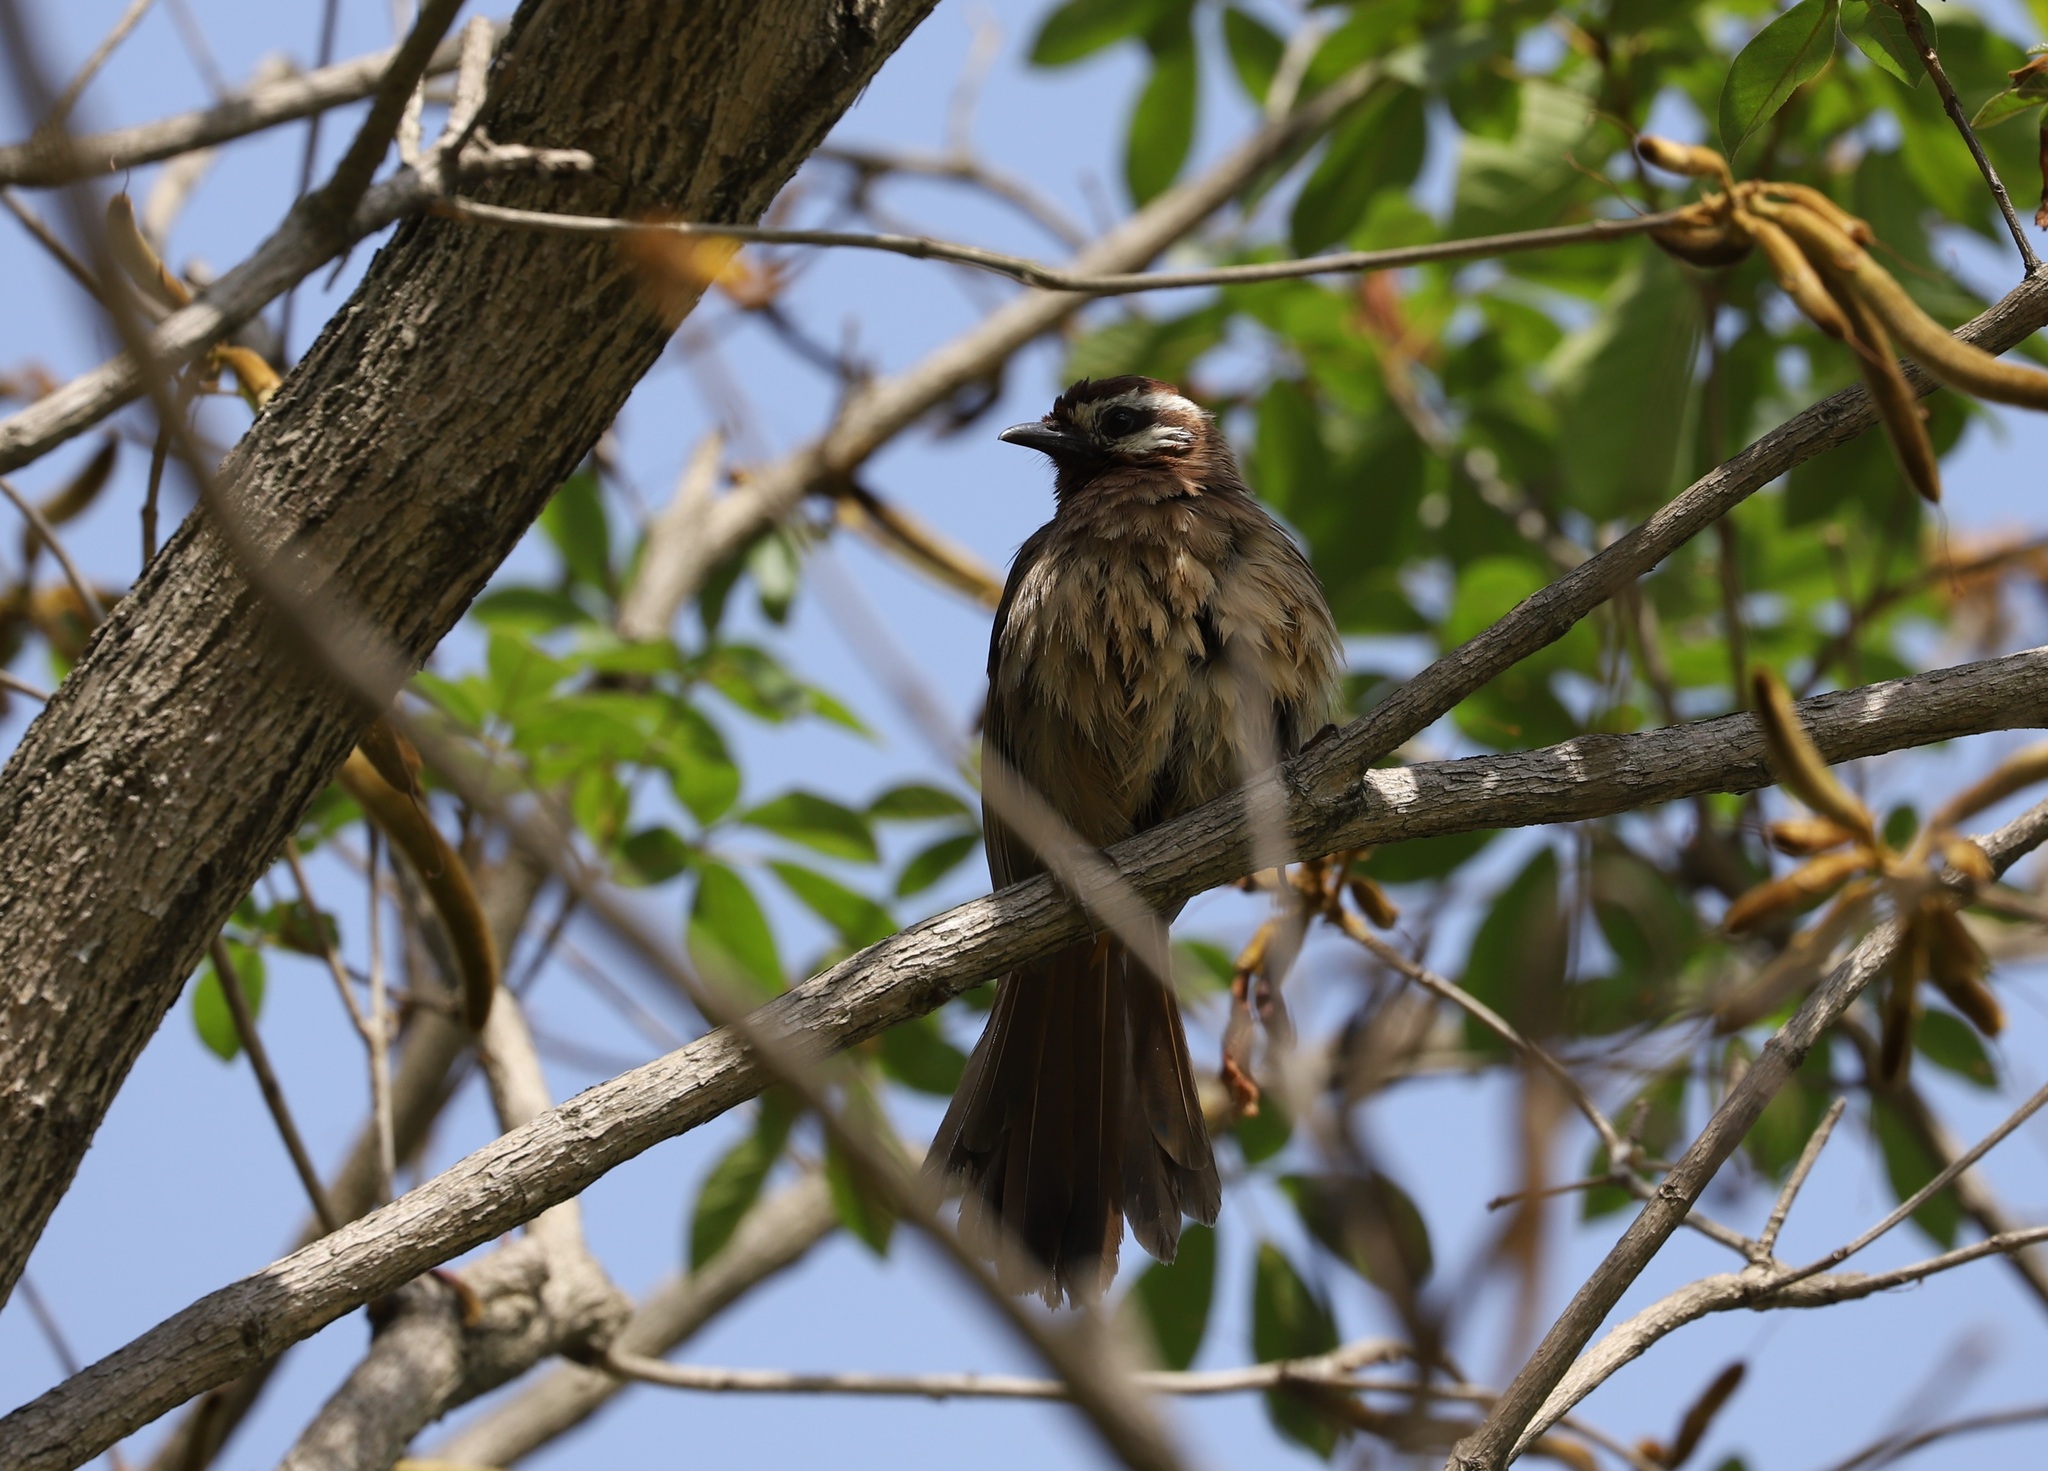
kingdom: Animalia
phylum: Chordata
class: Aves
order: Passeriformes
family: Leiothrichidae
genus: Pterorhinus
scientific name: Pterorhinus sannio
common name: White-browed laughingthrush
